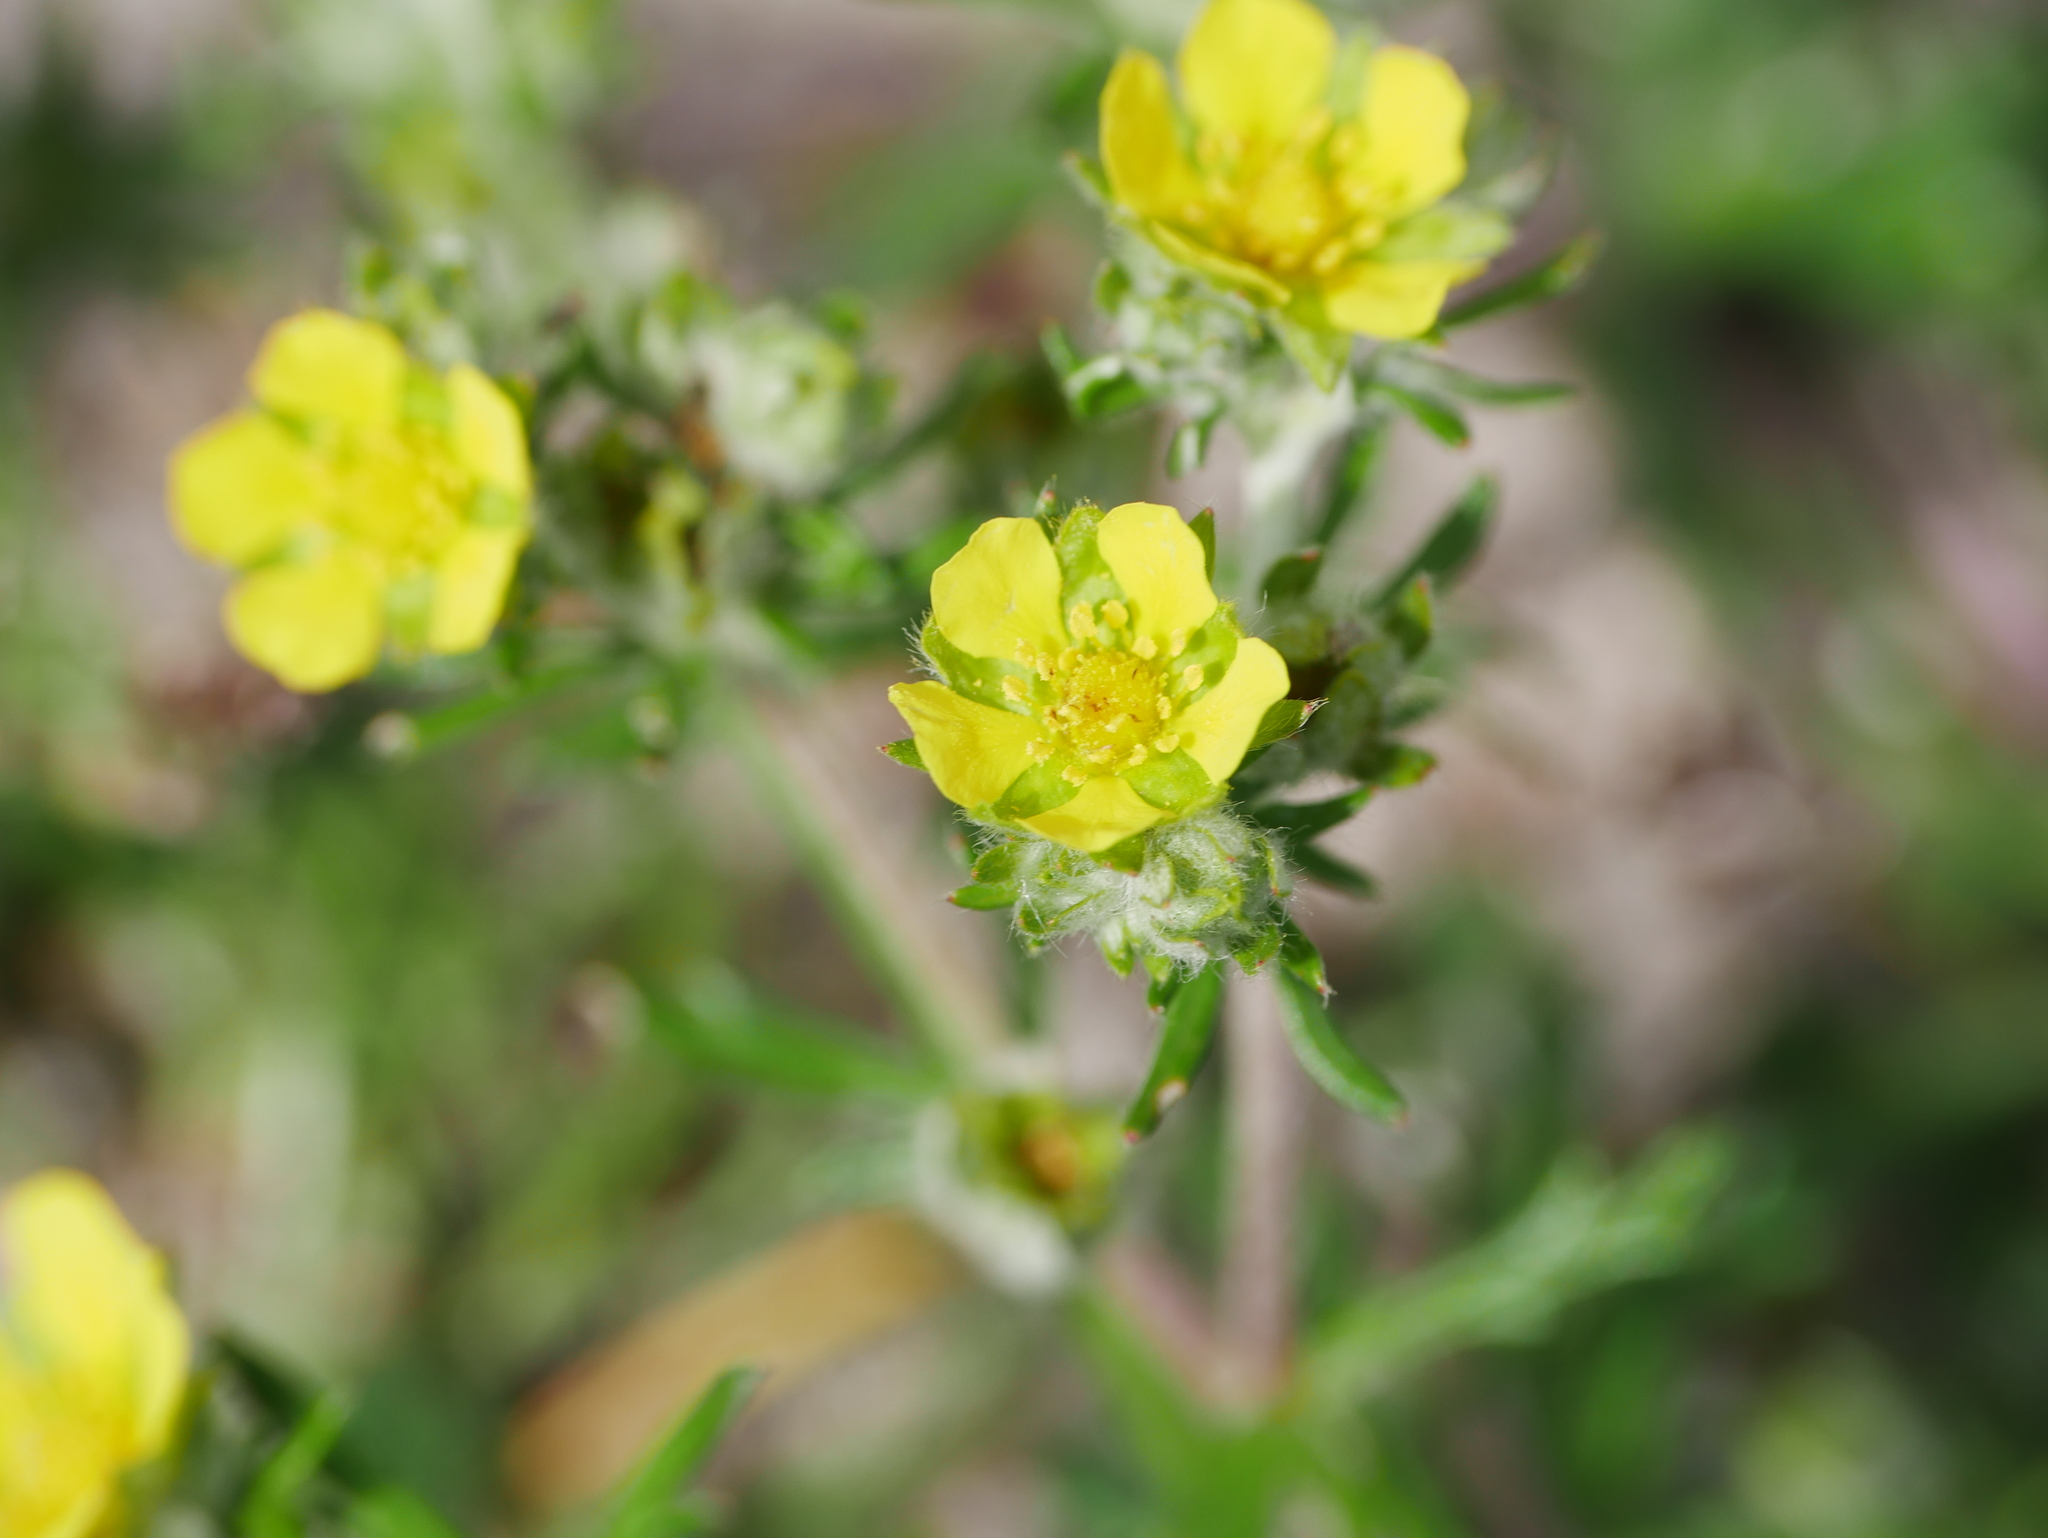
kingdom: Plantae
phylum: Tracheophyta
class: Magnoliopsida
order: Rosales
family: Rosaceae
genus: Potentilla
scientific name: Potentilla argentea
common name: Hoary cinquefoil
